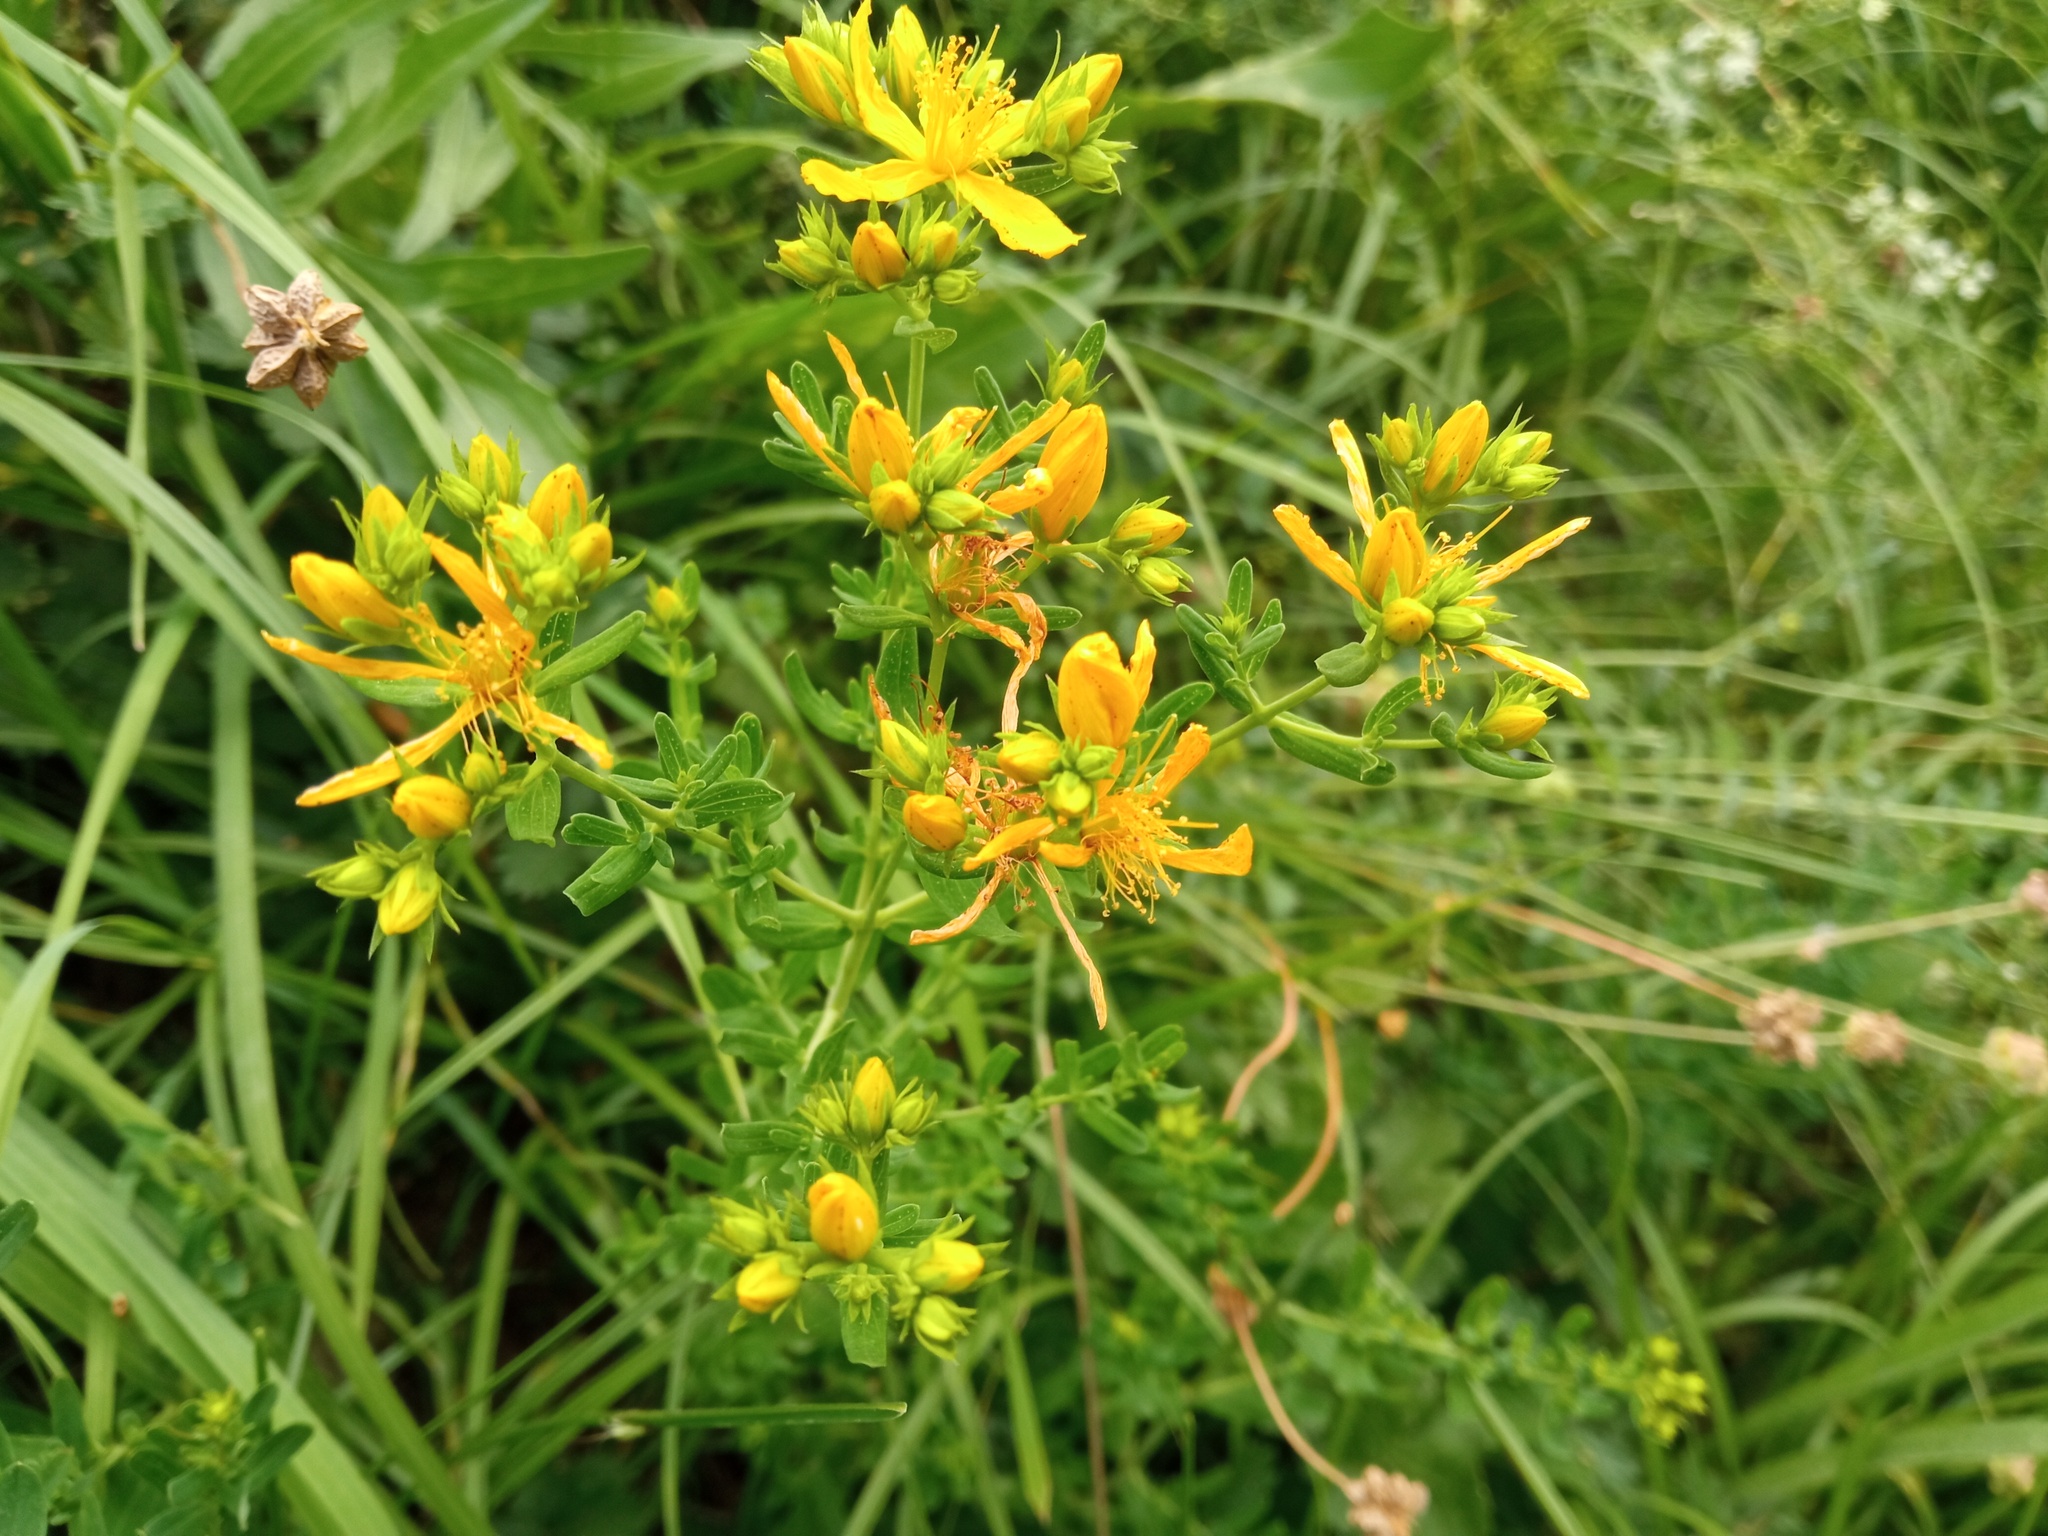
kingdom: Plantae
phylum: Tracheophyta
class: Magnoliopsida
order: Malpighiales
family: Hypericaceae
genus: Hypericum
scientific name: Hypericum perforatum
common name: Common st. johnswort
